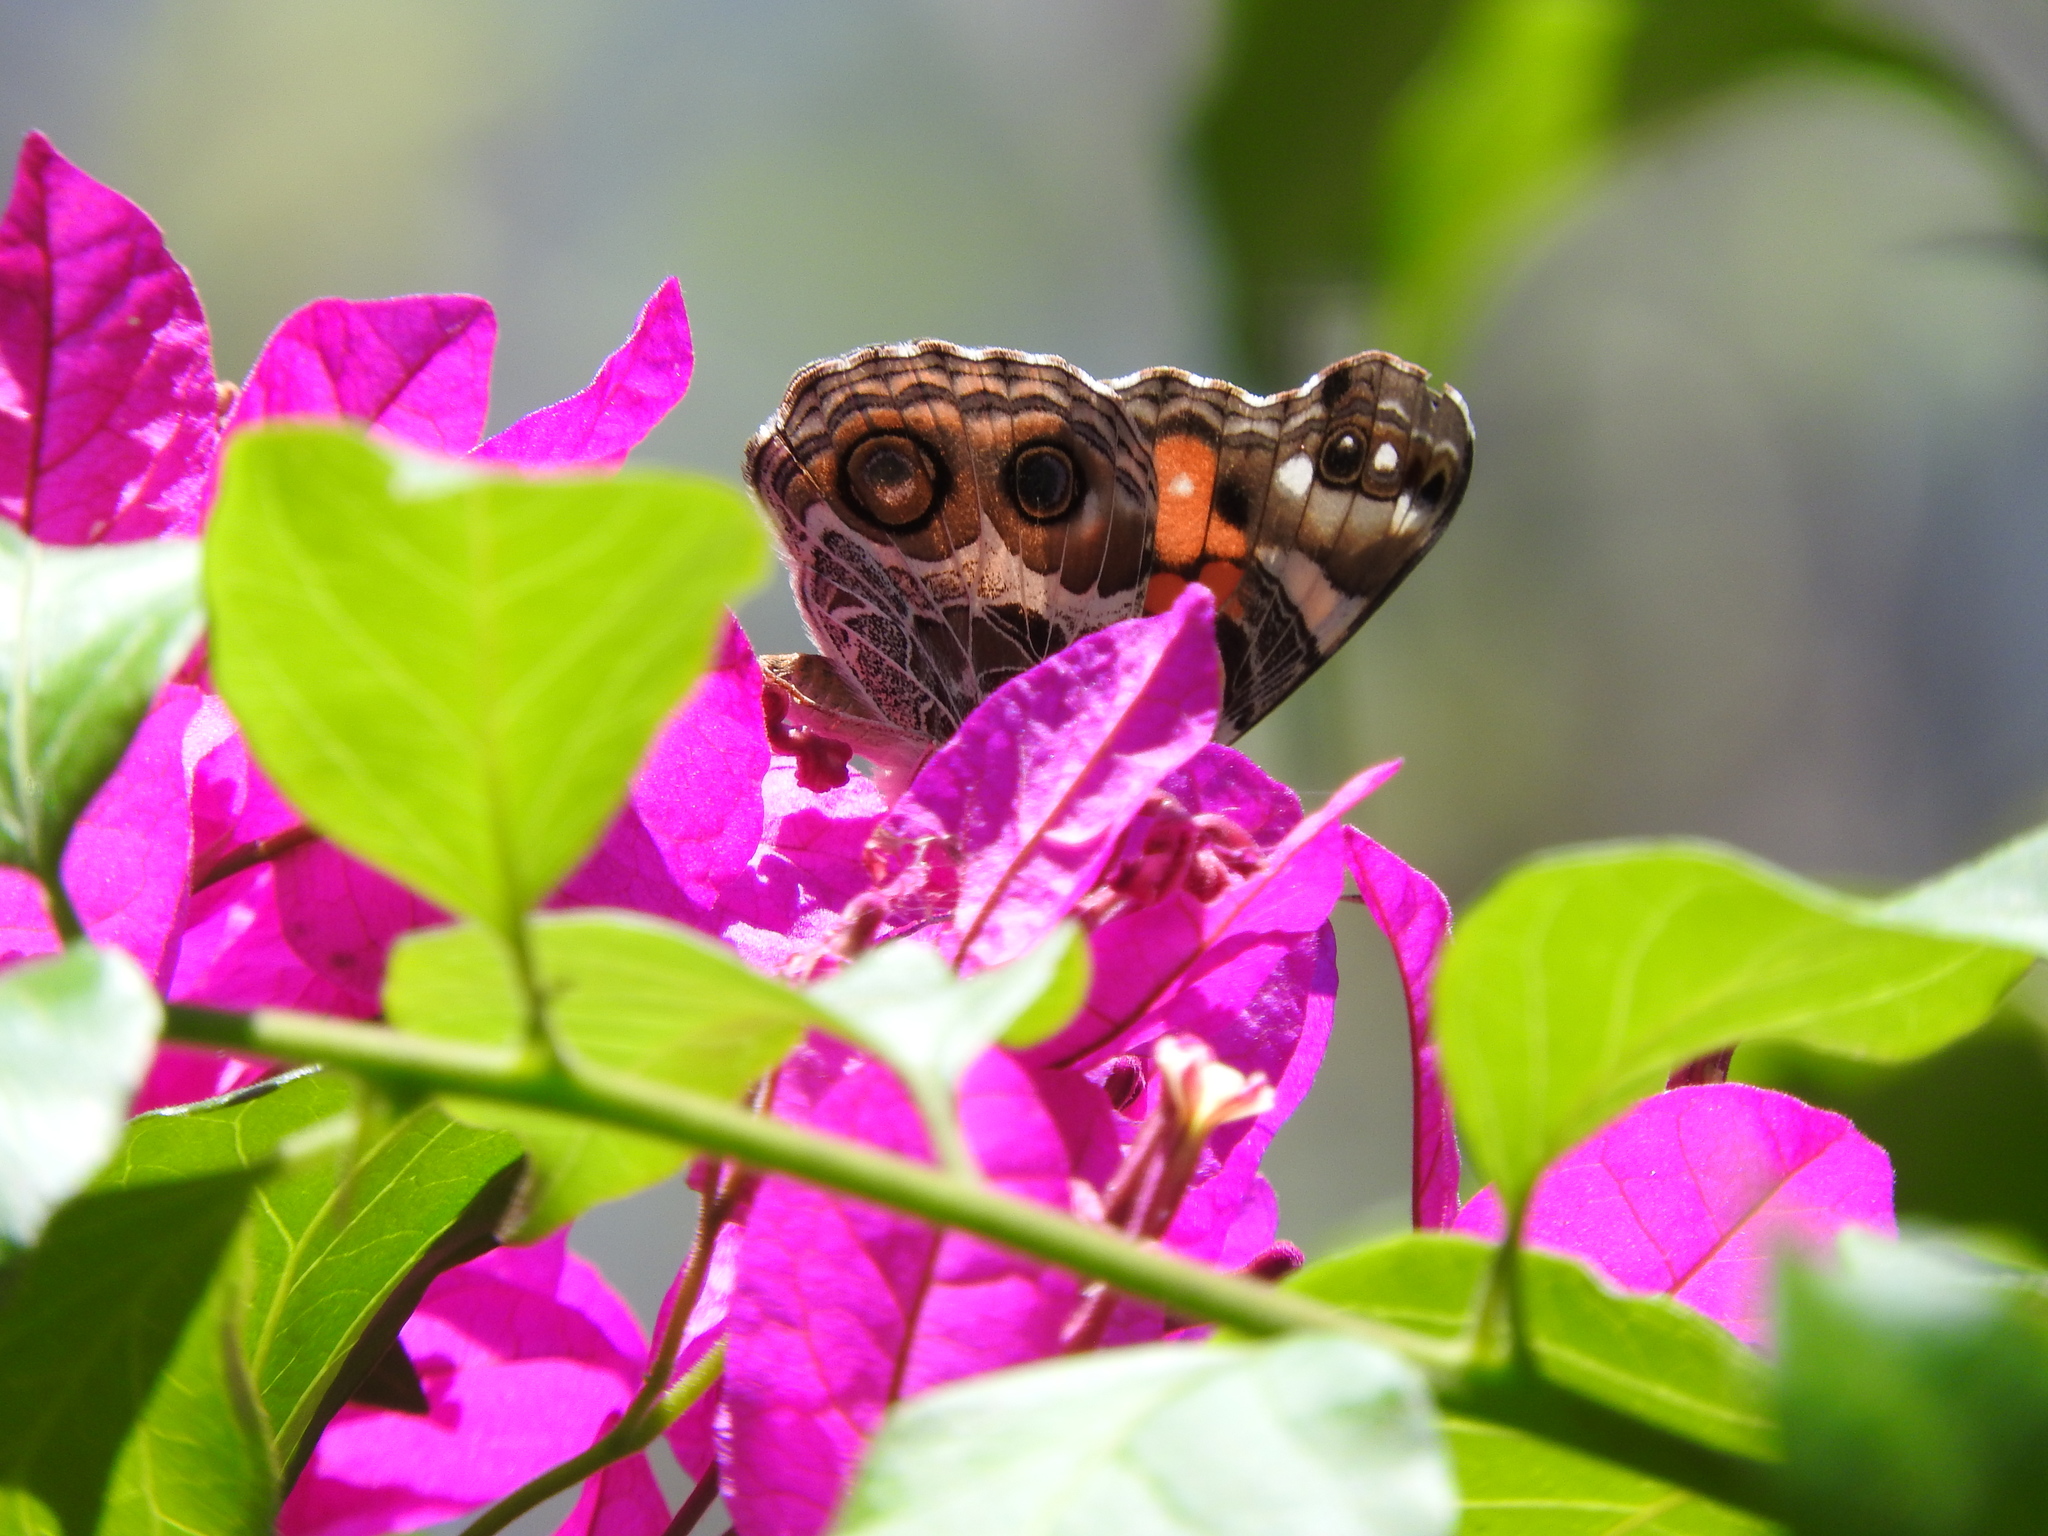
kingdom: Animalia
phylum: Arthropoda
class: Insecta
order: Lepidoptera
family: Nymphalidae
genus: Vanessa
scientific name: Vanessa virginiensis
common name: American lady
